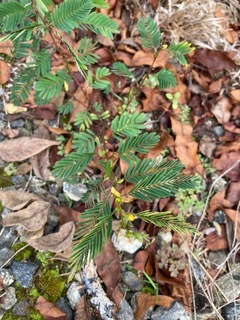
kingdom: Plantae
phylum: Tracheophyta
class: Magnoliopsida
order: Fabales
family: Fabaceae
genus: Chamaecrista
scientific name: Chamaecrista nictitans
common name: Sensitive cassia
